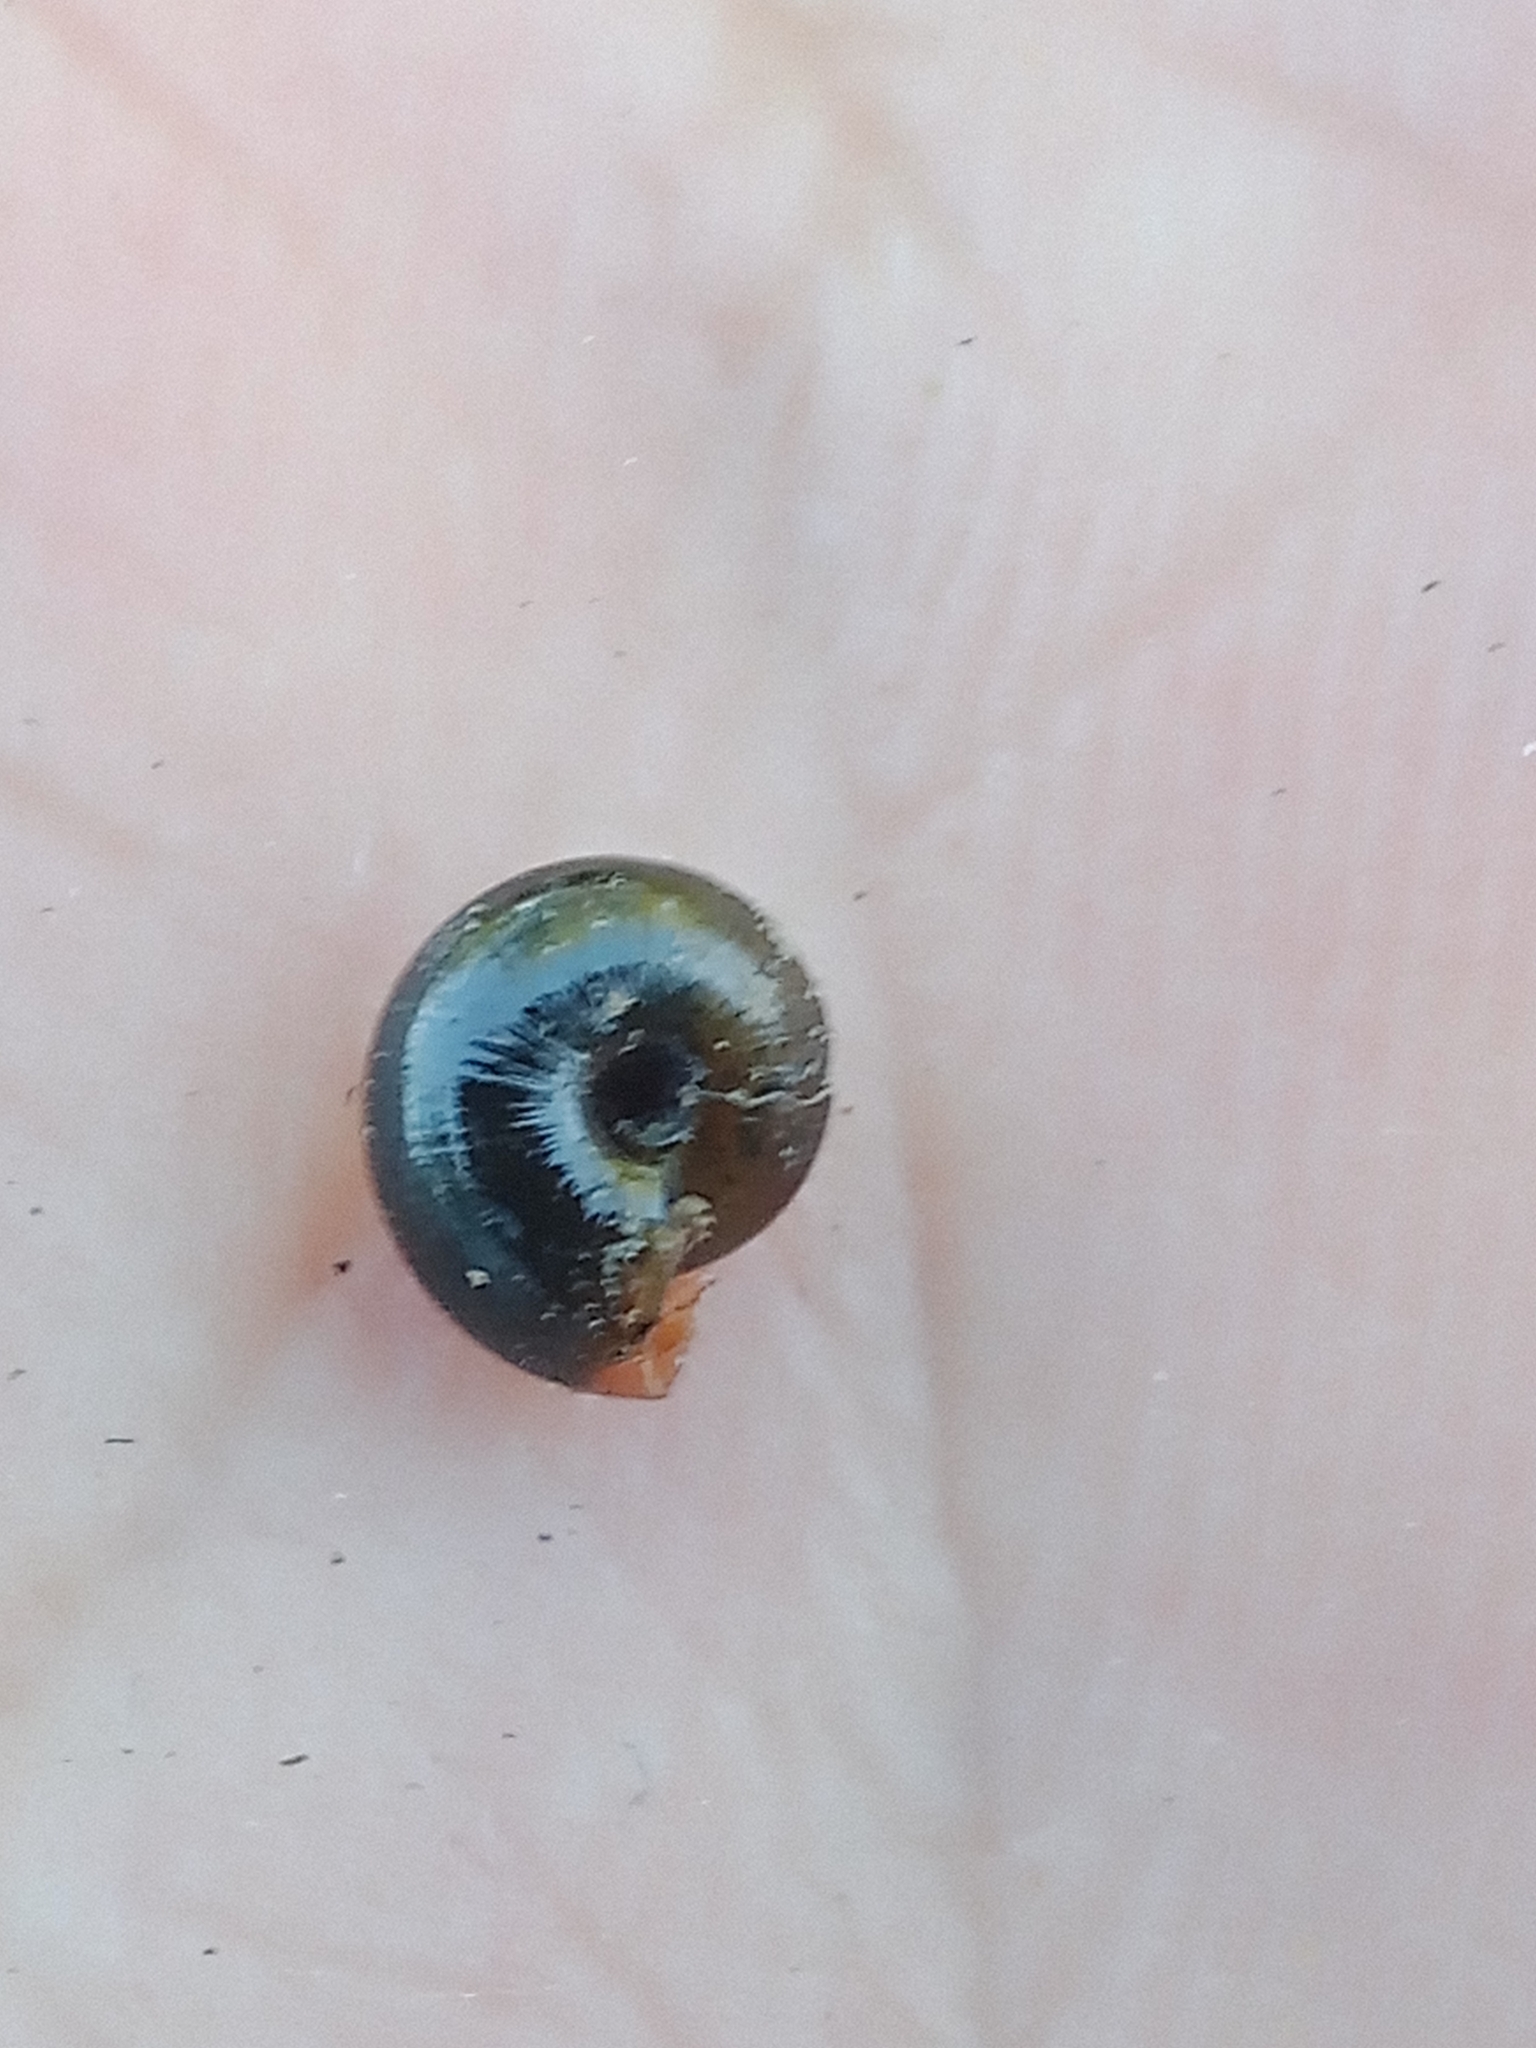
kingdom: Animalia
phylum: Mollusca
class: Gastropoda
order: Stylommatophora
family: Gastrodontidae
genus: Zonitoides
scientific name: Zonitoides nitidus
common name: Shiny glass snail
